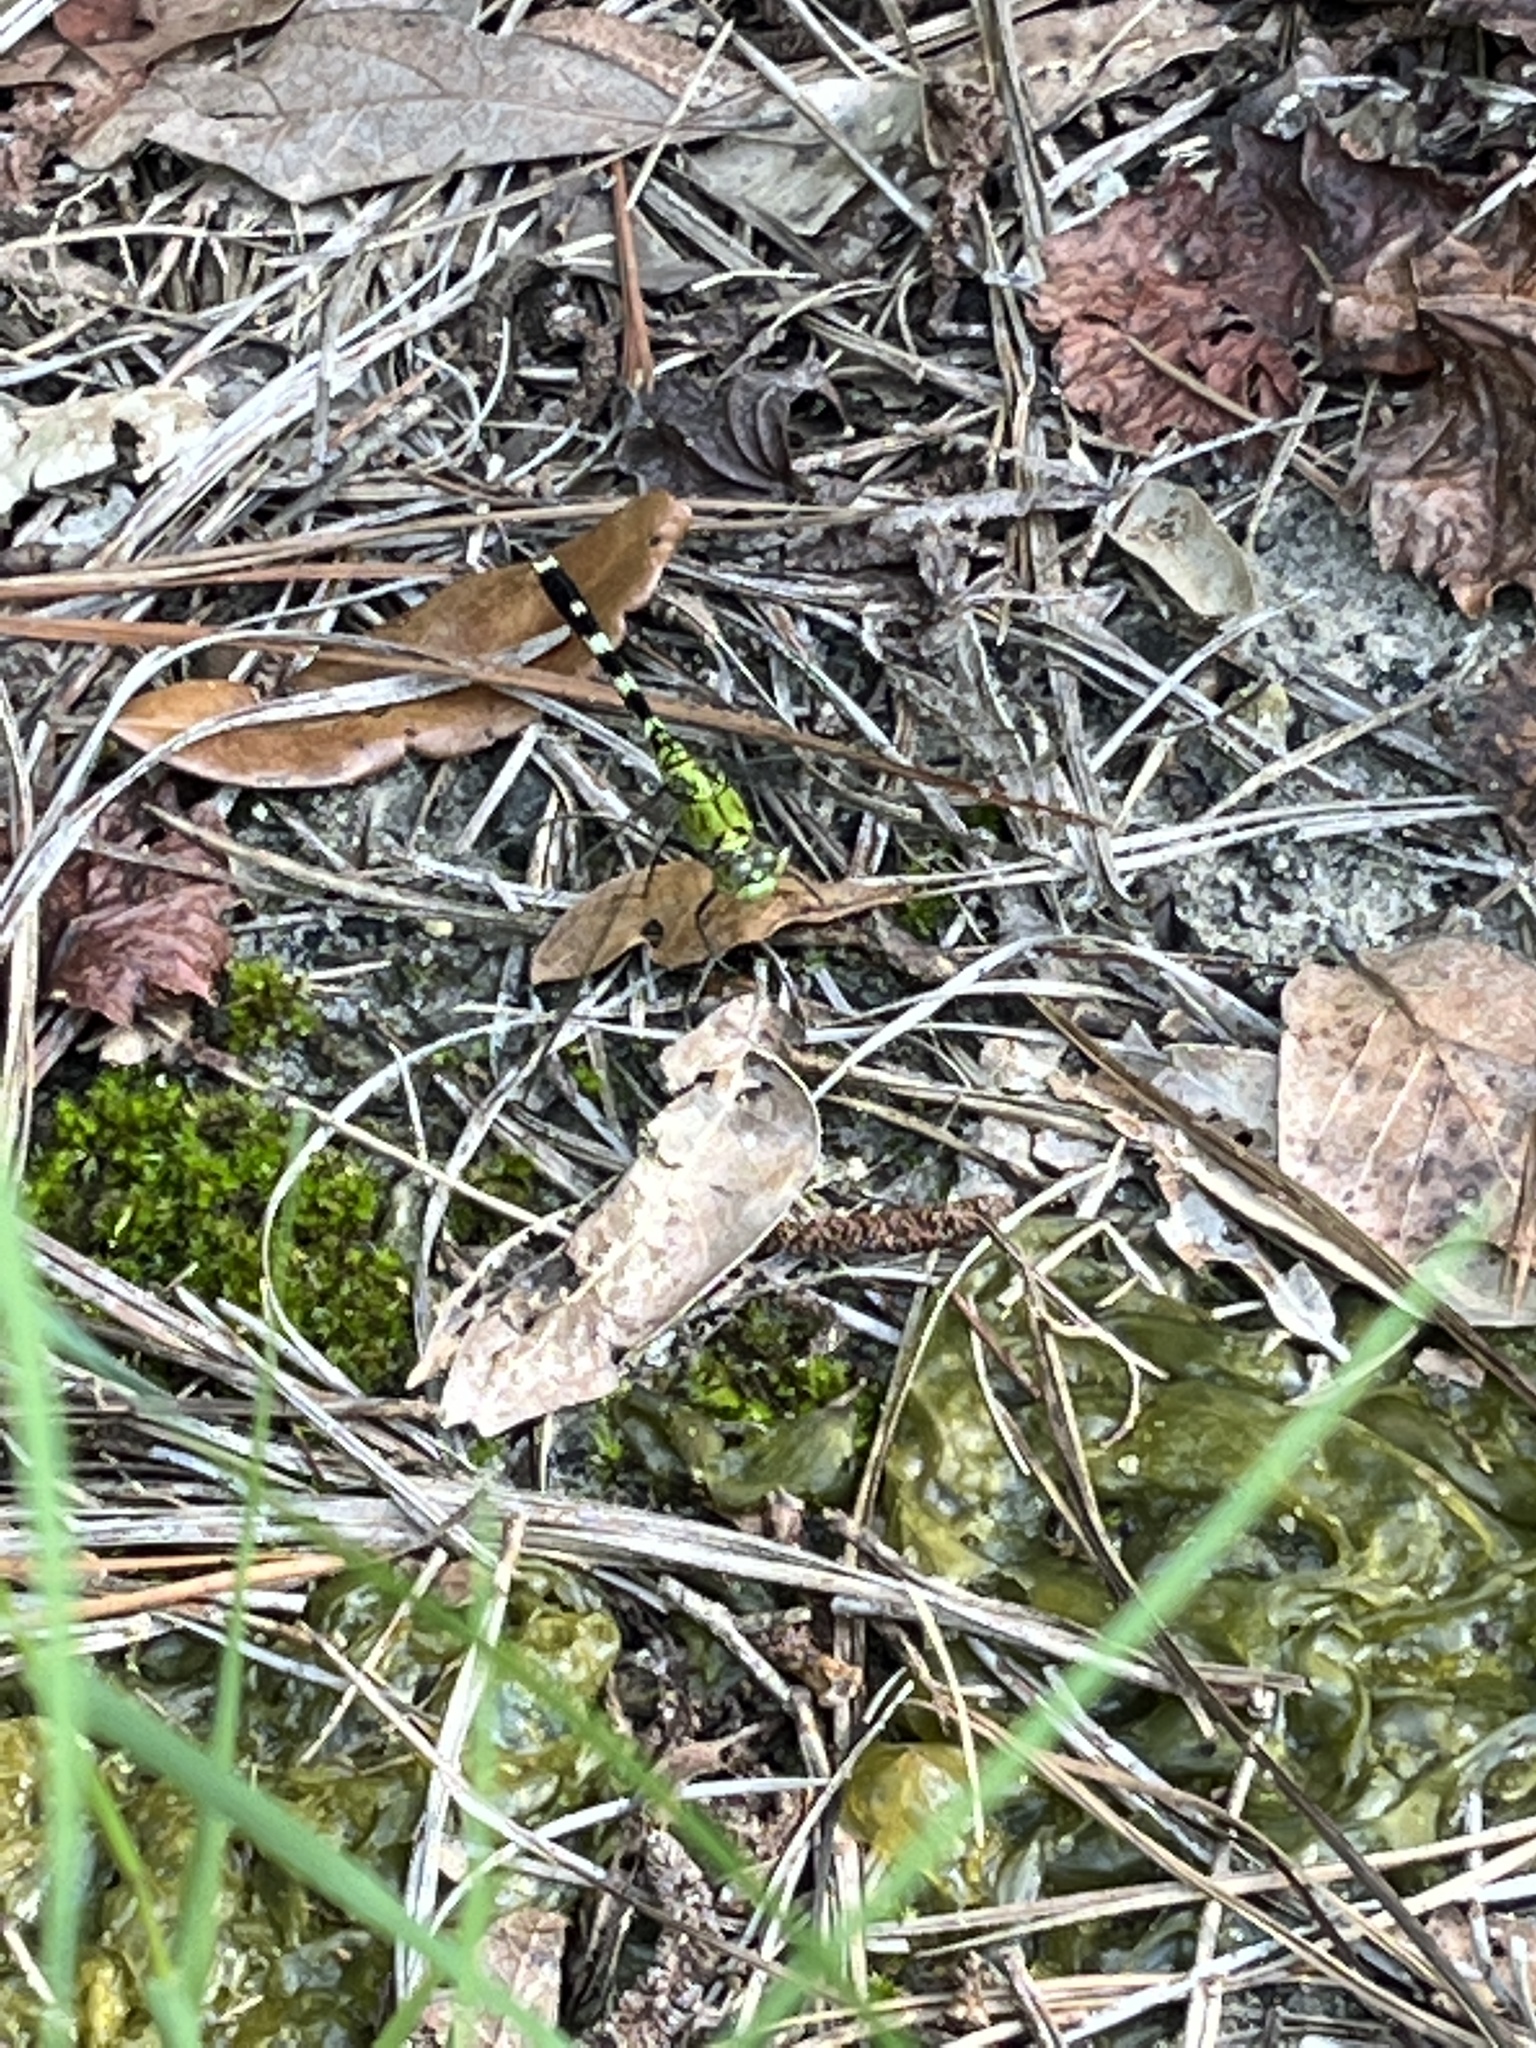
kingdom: Animalia
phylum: Arthropoda
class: Insecta
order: Odonata
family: Libellulidae
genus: Erythemis
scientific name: Erythemis simplicicollis
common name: Eastern pondhawk
